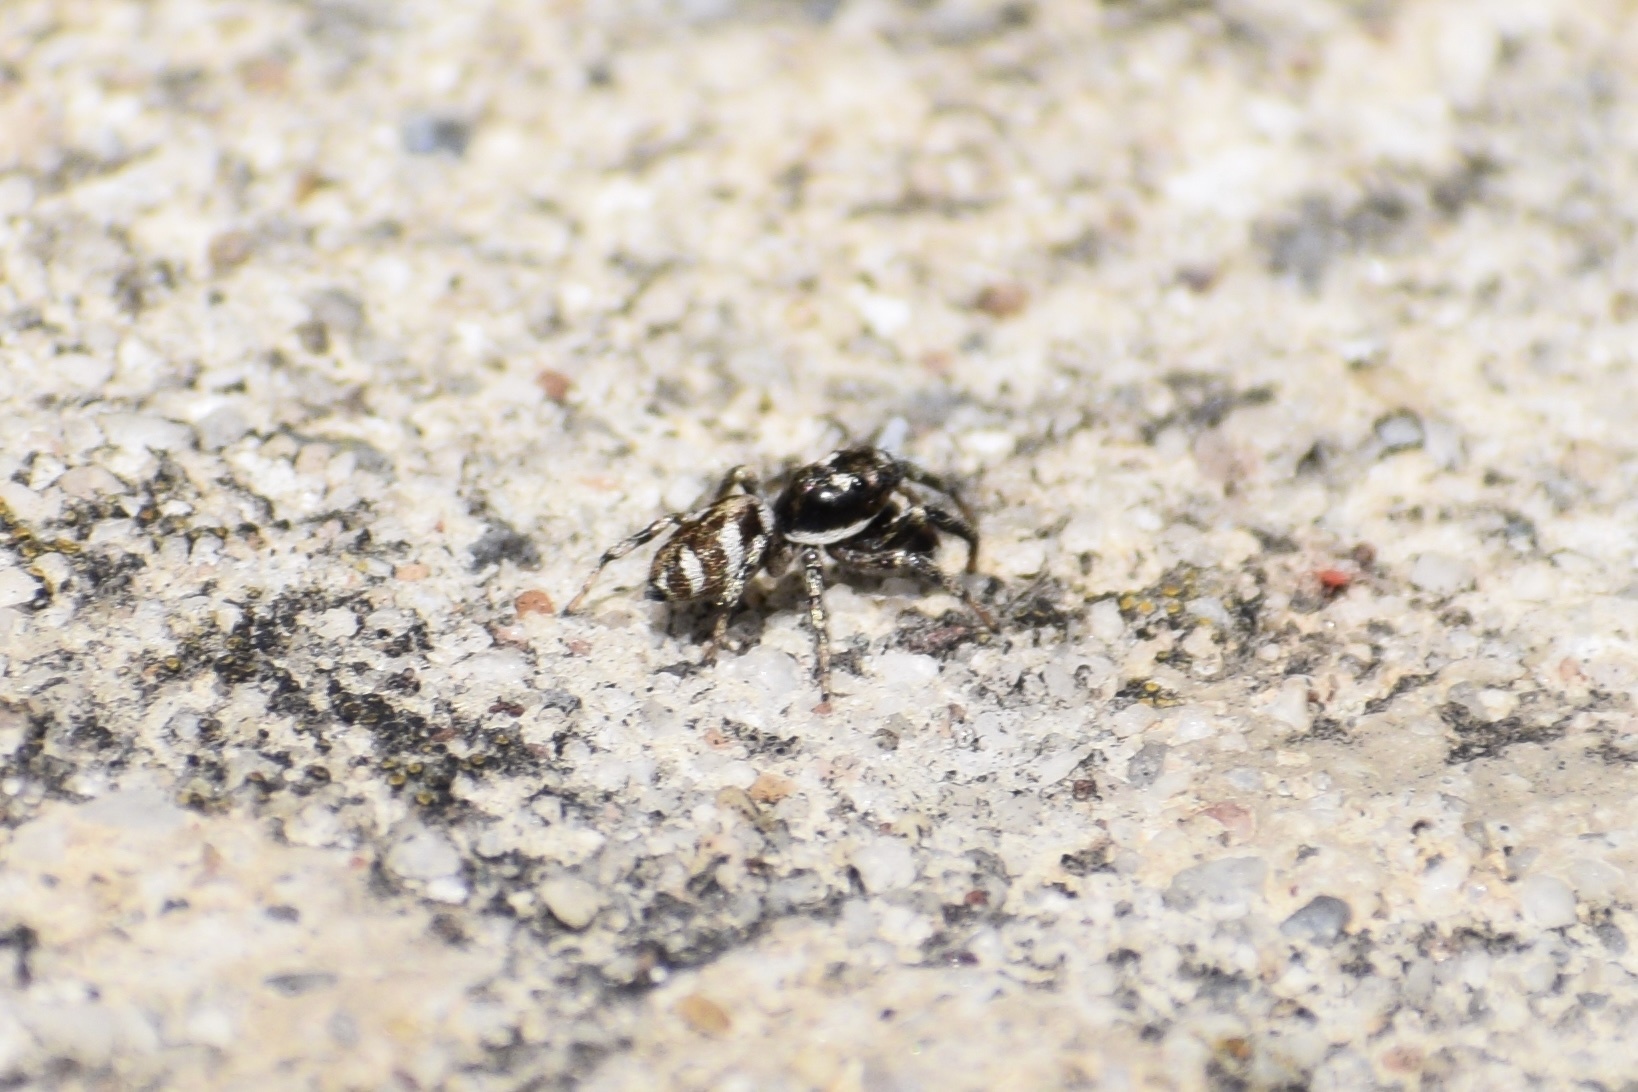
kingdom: Animalia
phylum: Arthropoda
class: Arachnida
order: Araneae
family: Salticidae
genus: Salticus
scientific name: Salticus scenicus
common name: Zebra jumper
